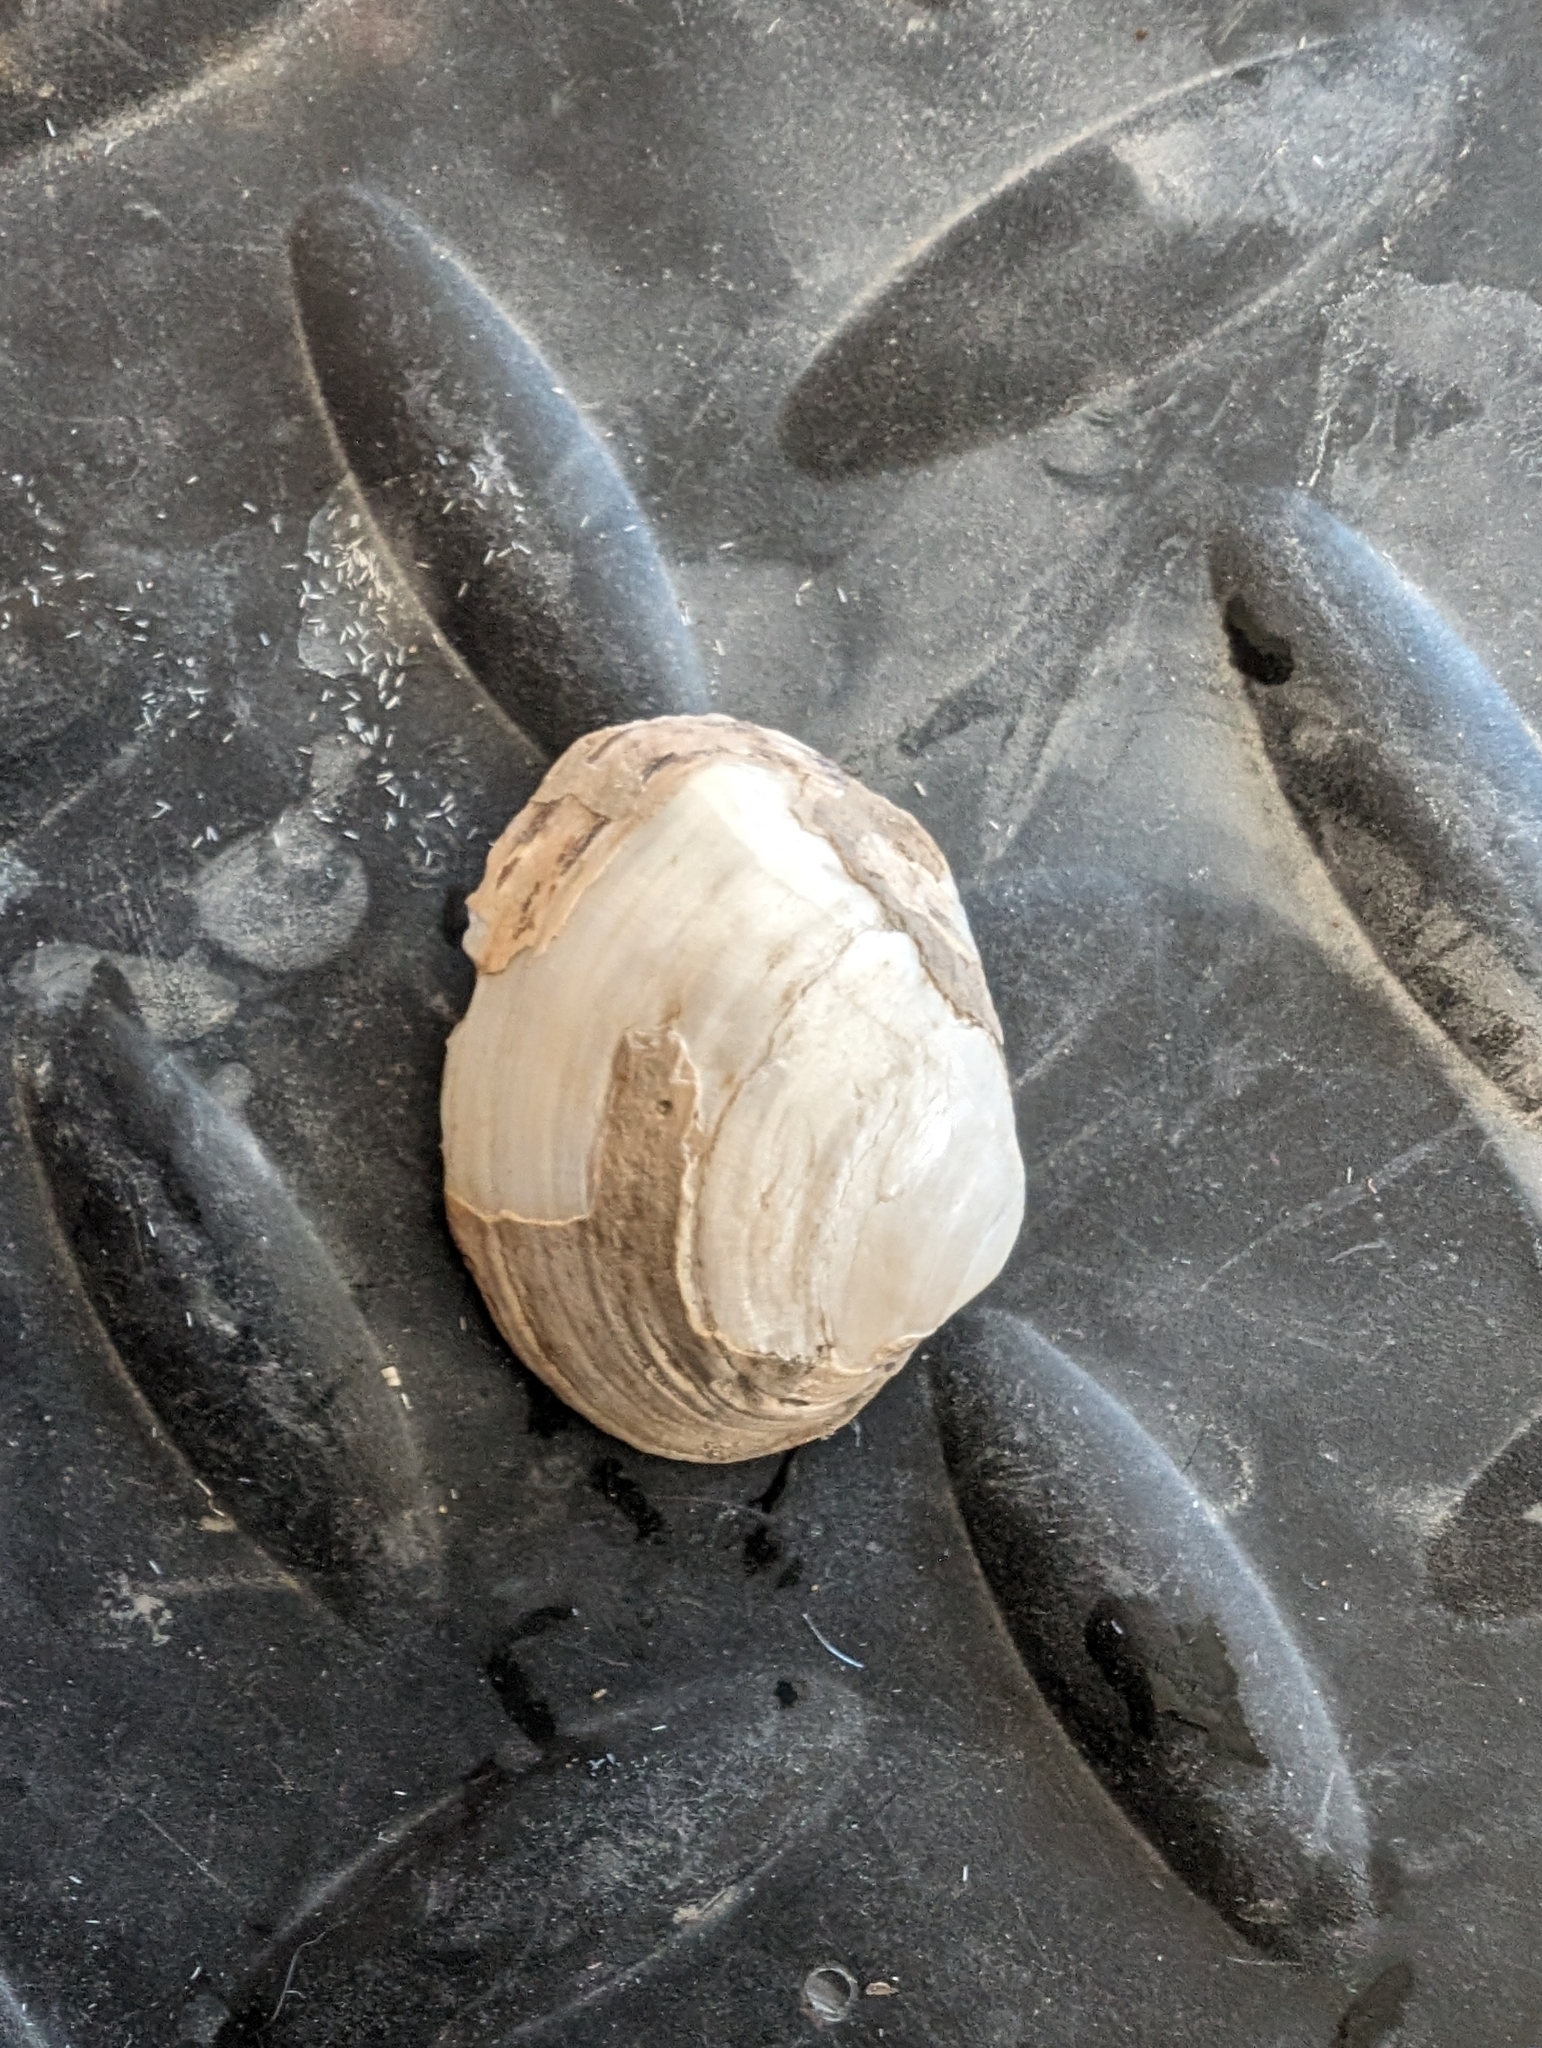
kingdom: Animalia
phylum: Mollusca
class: Bivalvia
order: Unionida
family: Unionidae
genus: Fusconaia
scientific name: Fusconaia flava
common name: Wabash pigtoe
